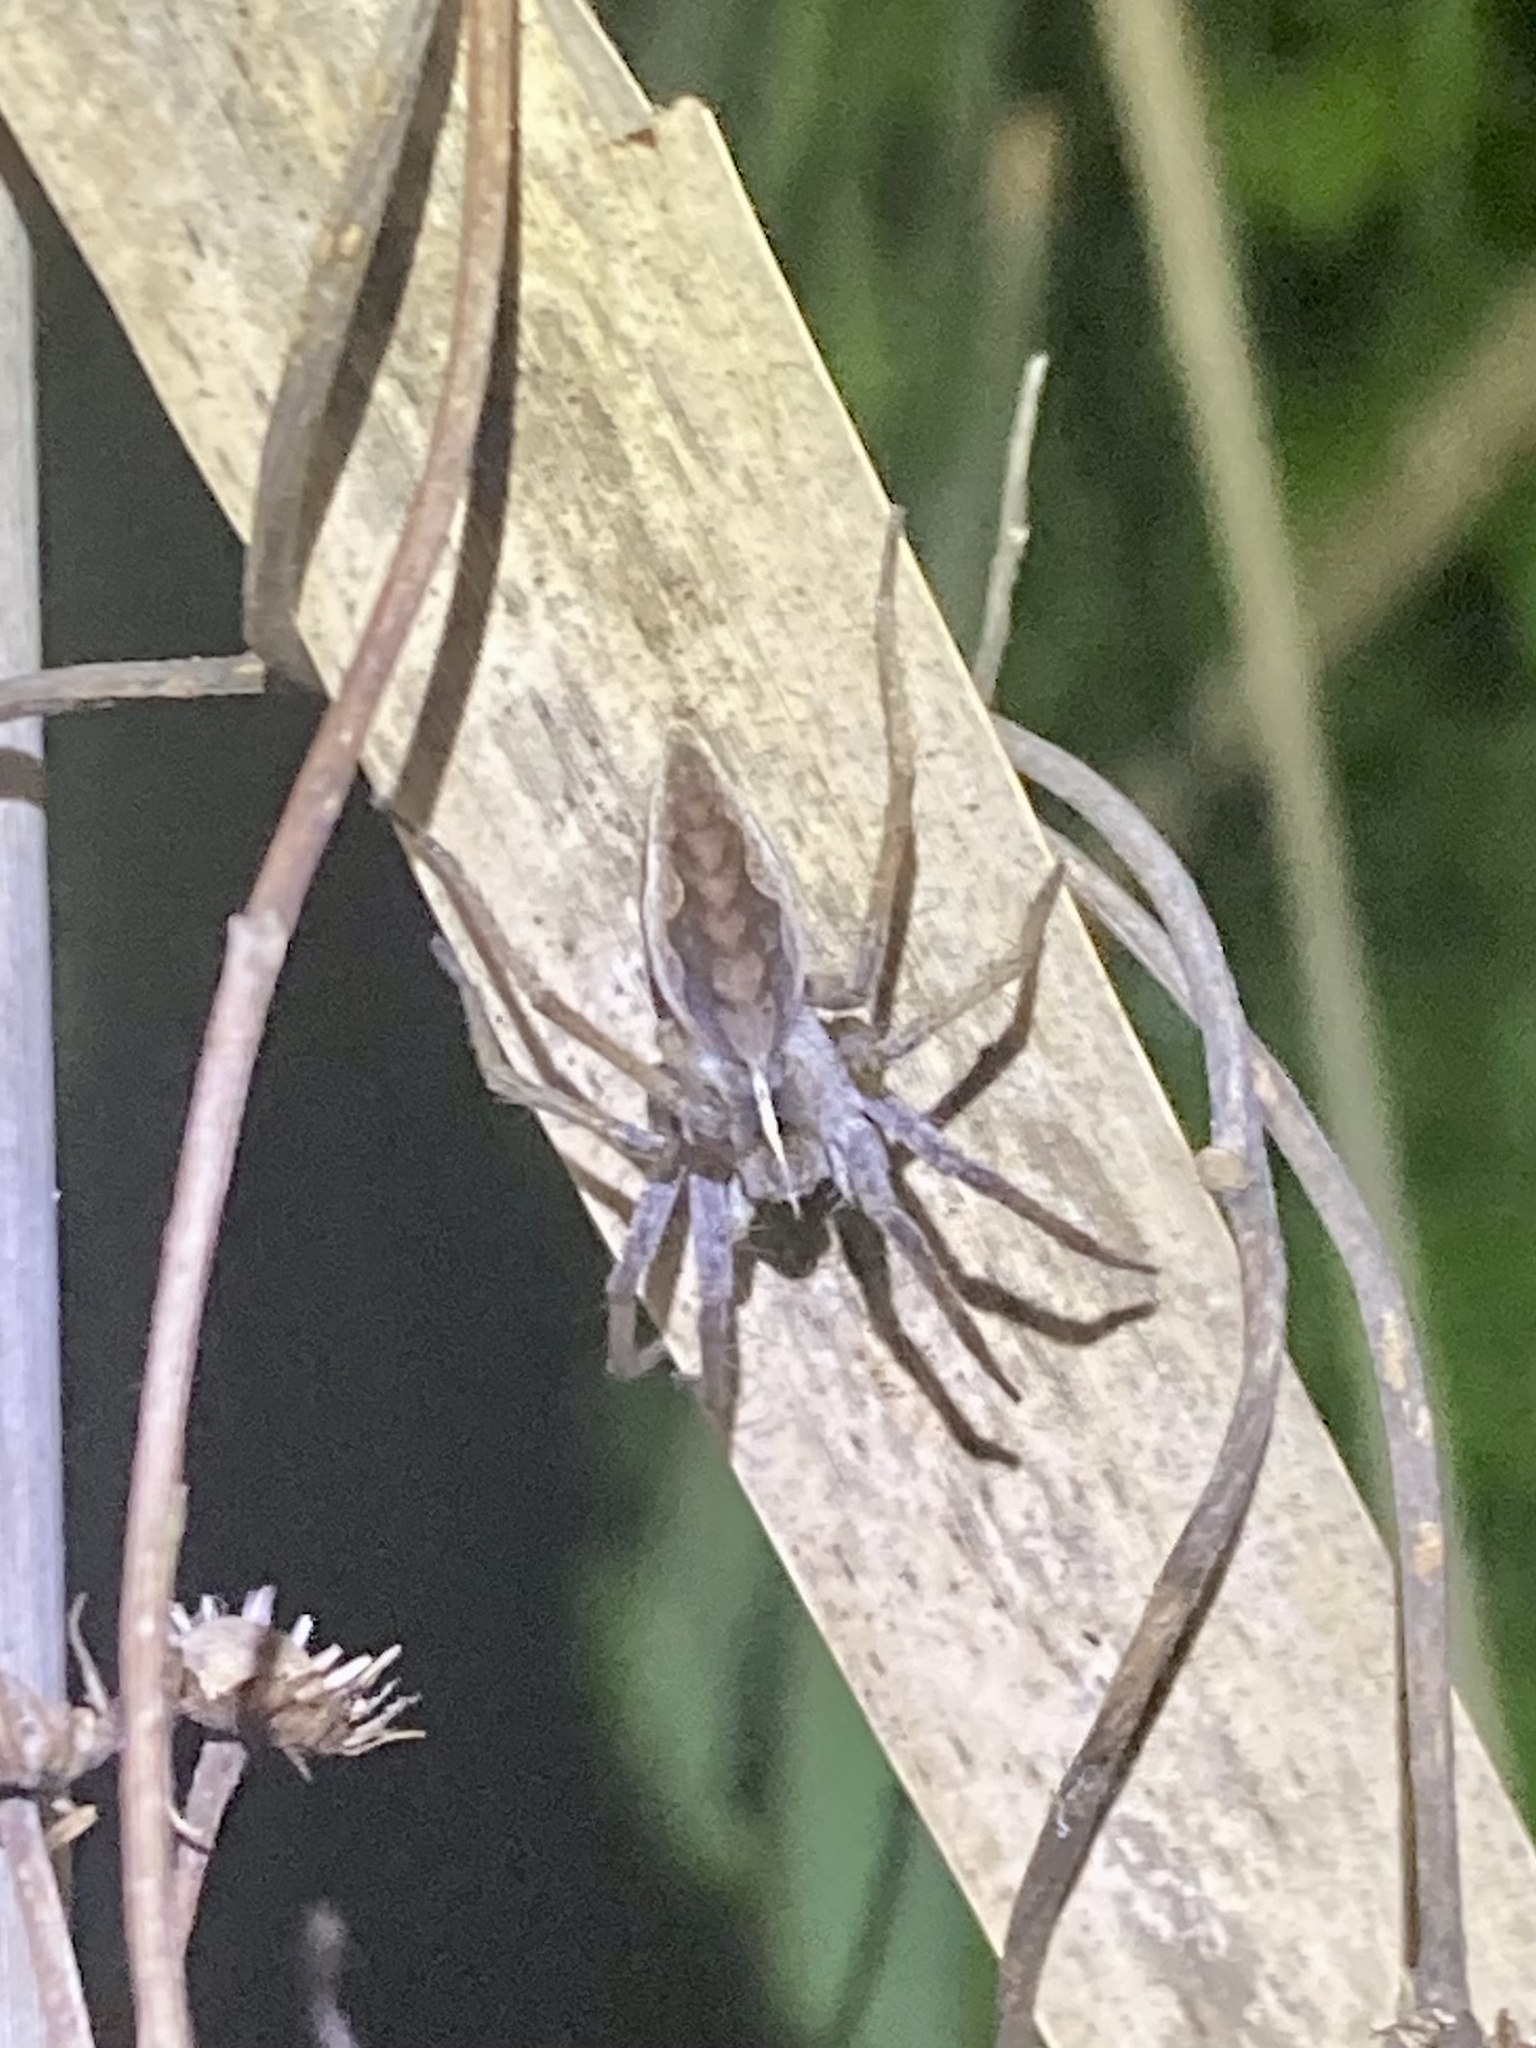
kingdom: Animalia
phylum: Arthropoda
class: Arachnida
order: Araneae
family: Pisauridae
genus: Pisaura
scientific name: Pisaura
